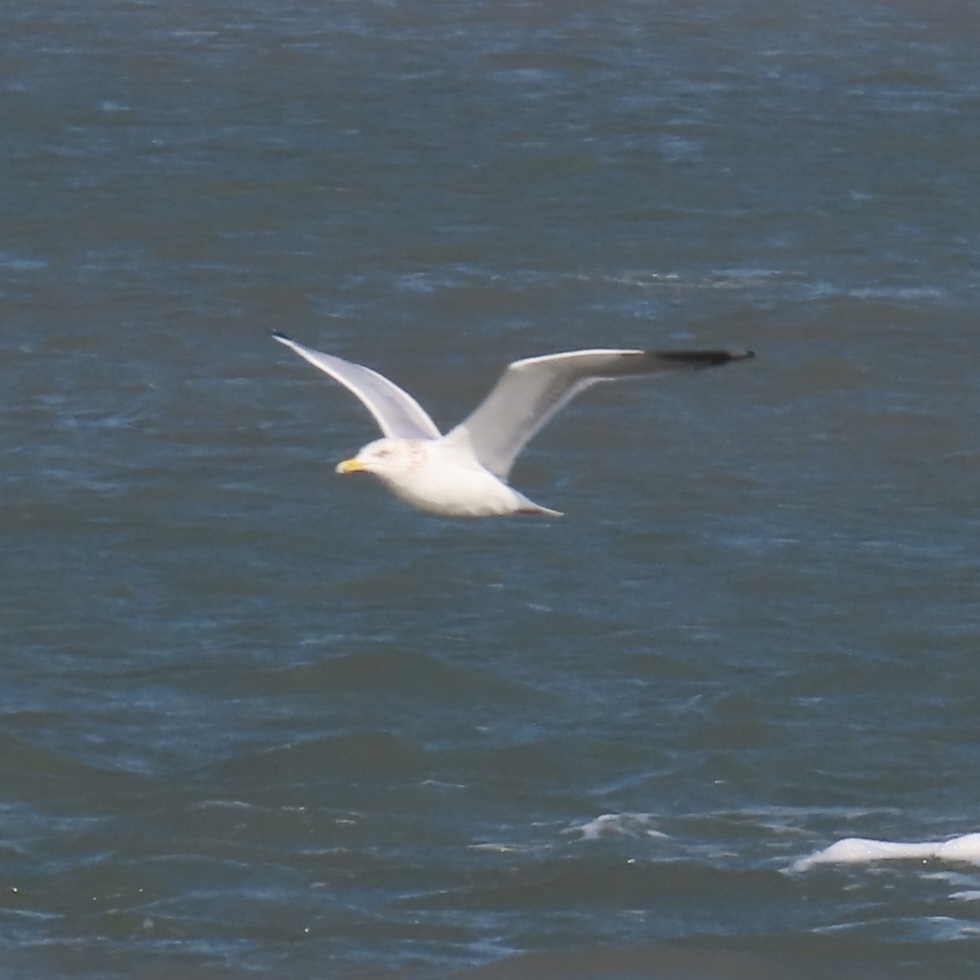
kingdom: Animalia
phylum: Chordata
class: Aves
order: Charadriiformes
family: Laridae
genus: Larus
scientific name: Larus argentatus
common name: Herring gull
